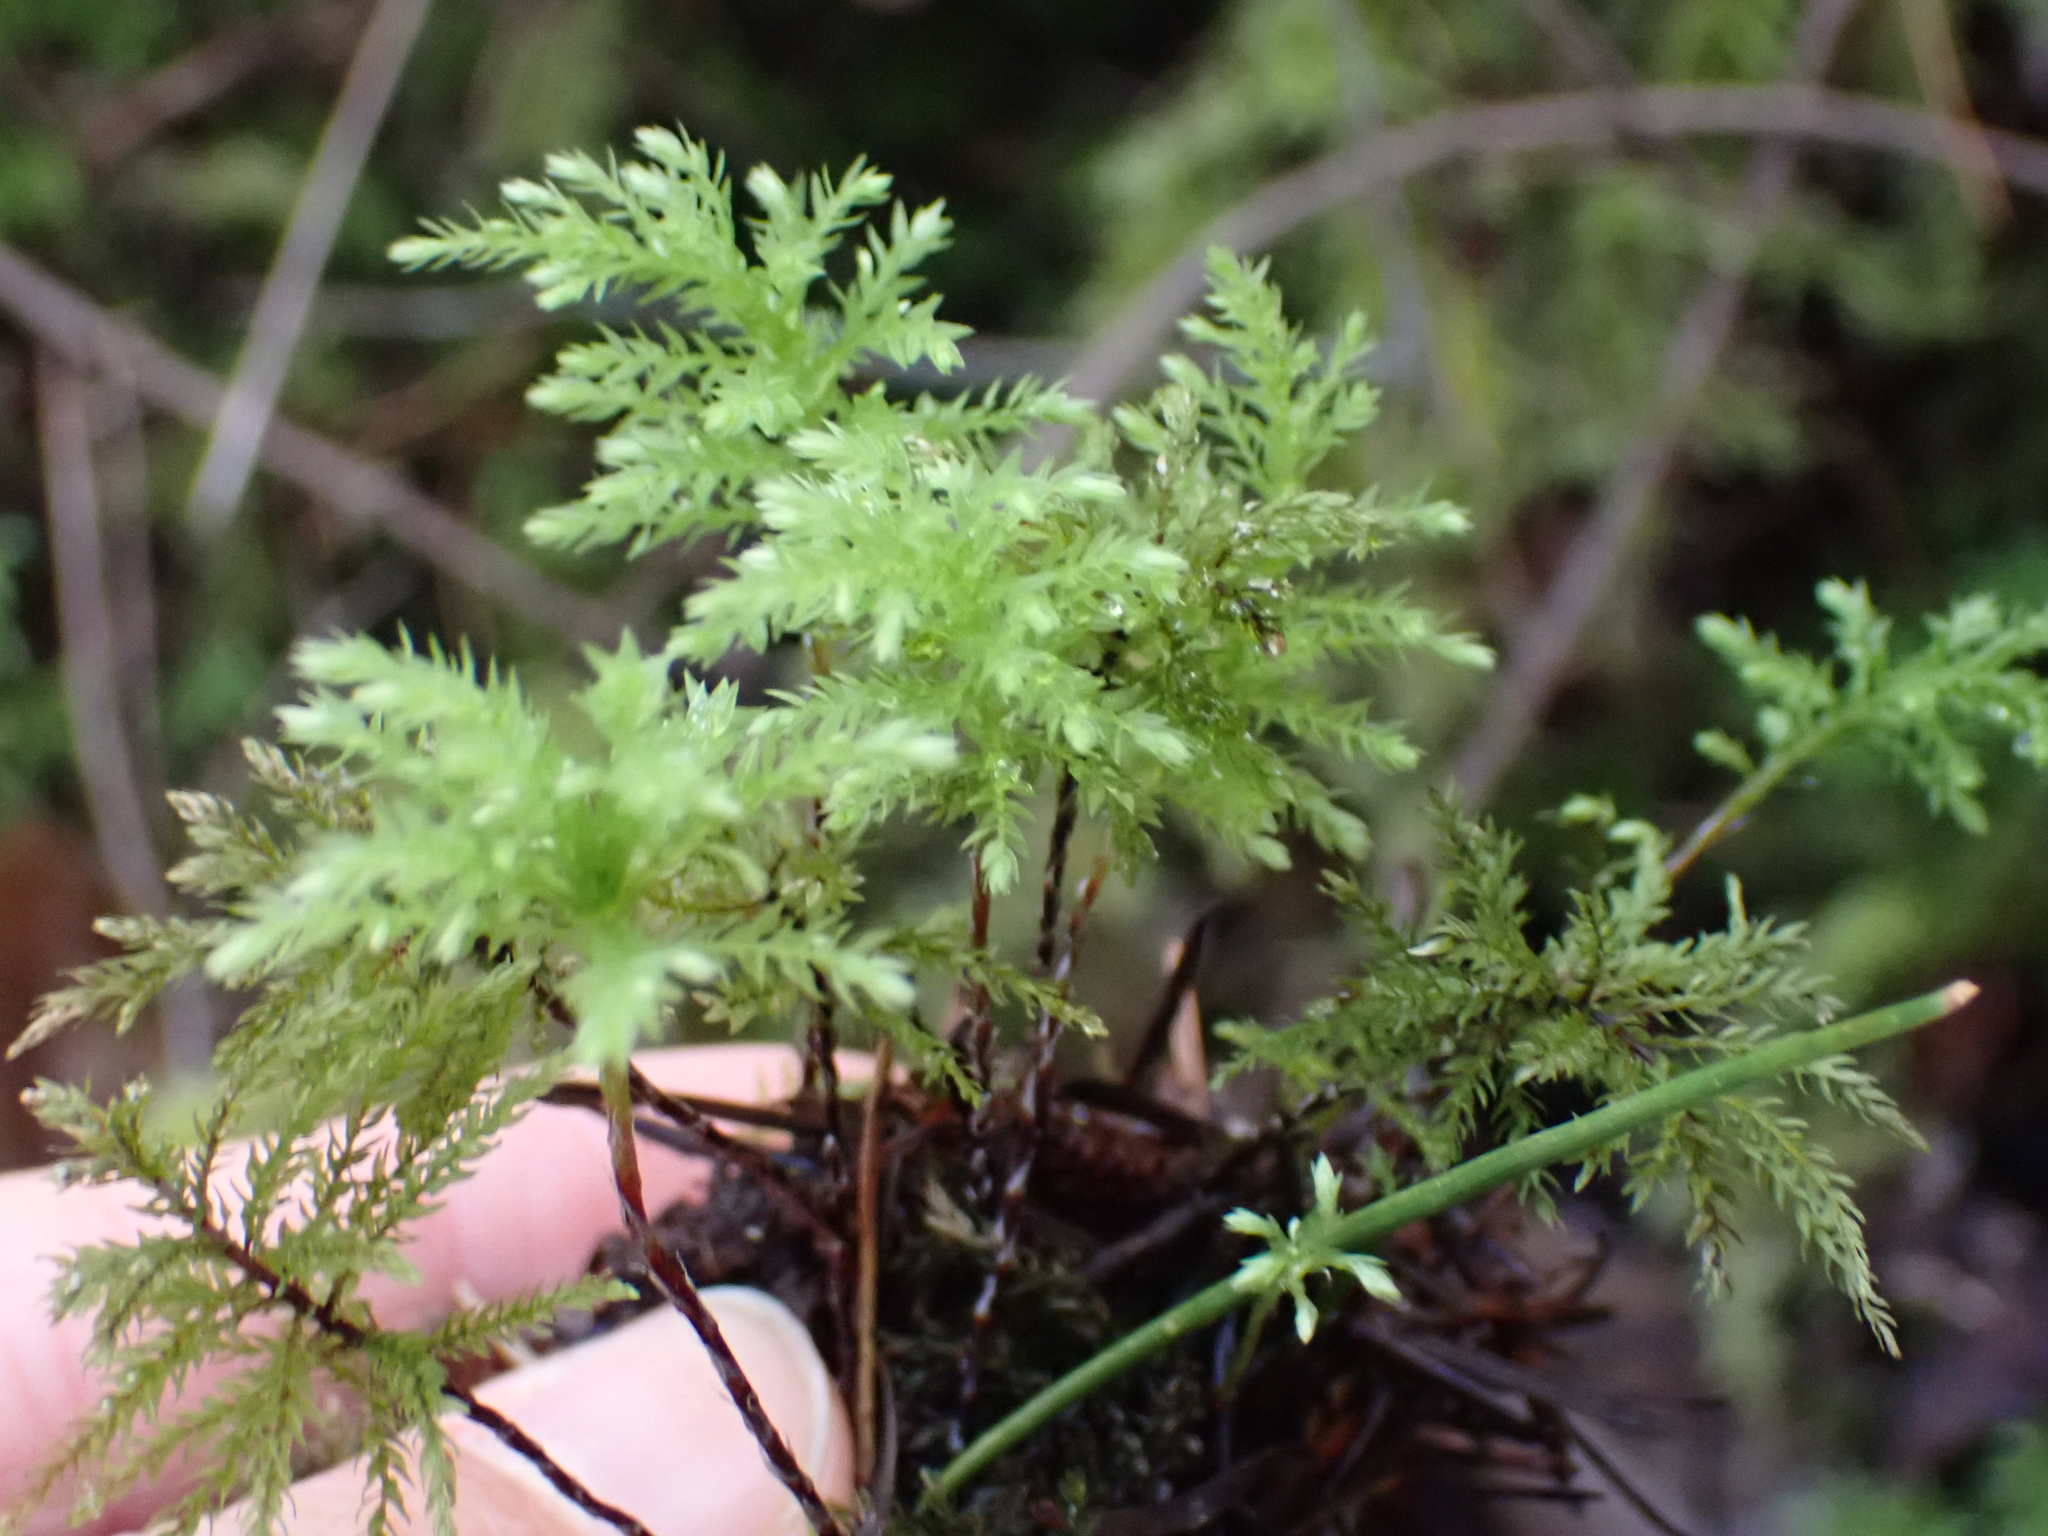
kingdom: Plantae
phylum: Bryophyta
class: Bryopsida
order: Bryales
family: Mniaceae
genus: Leucolepis
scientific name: Leucolepis acanthoneura
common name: Leucolepis umbrella moss
